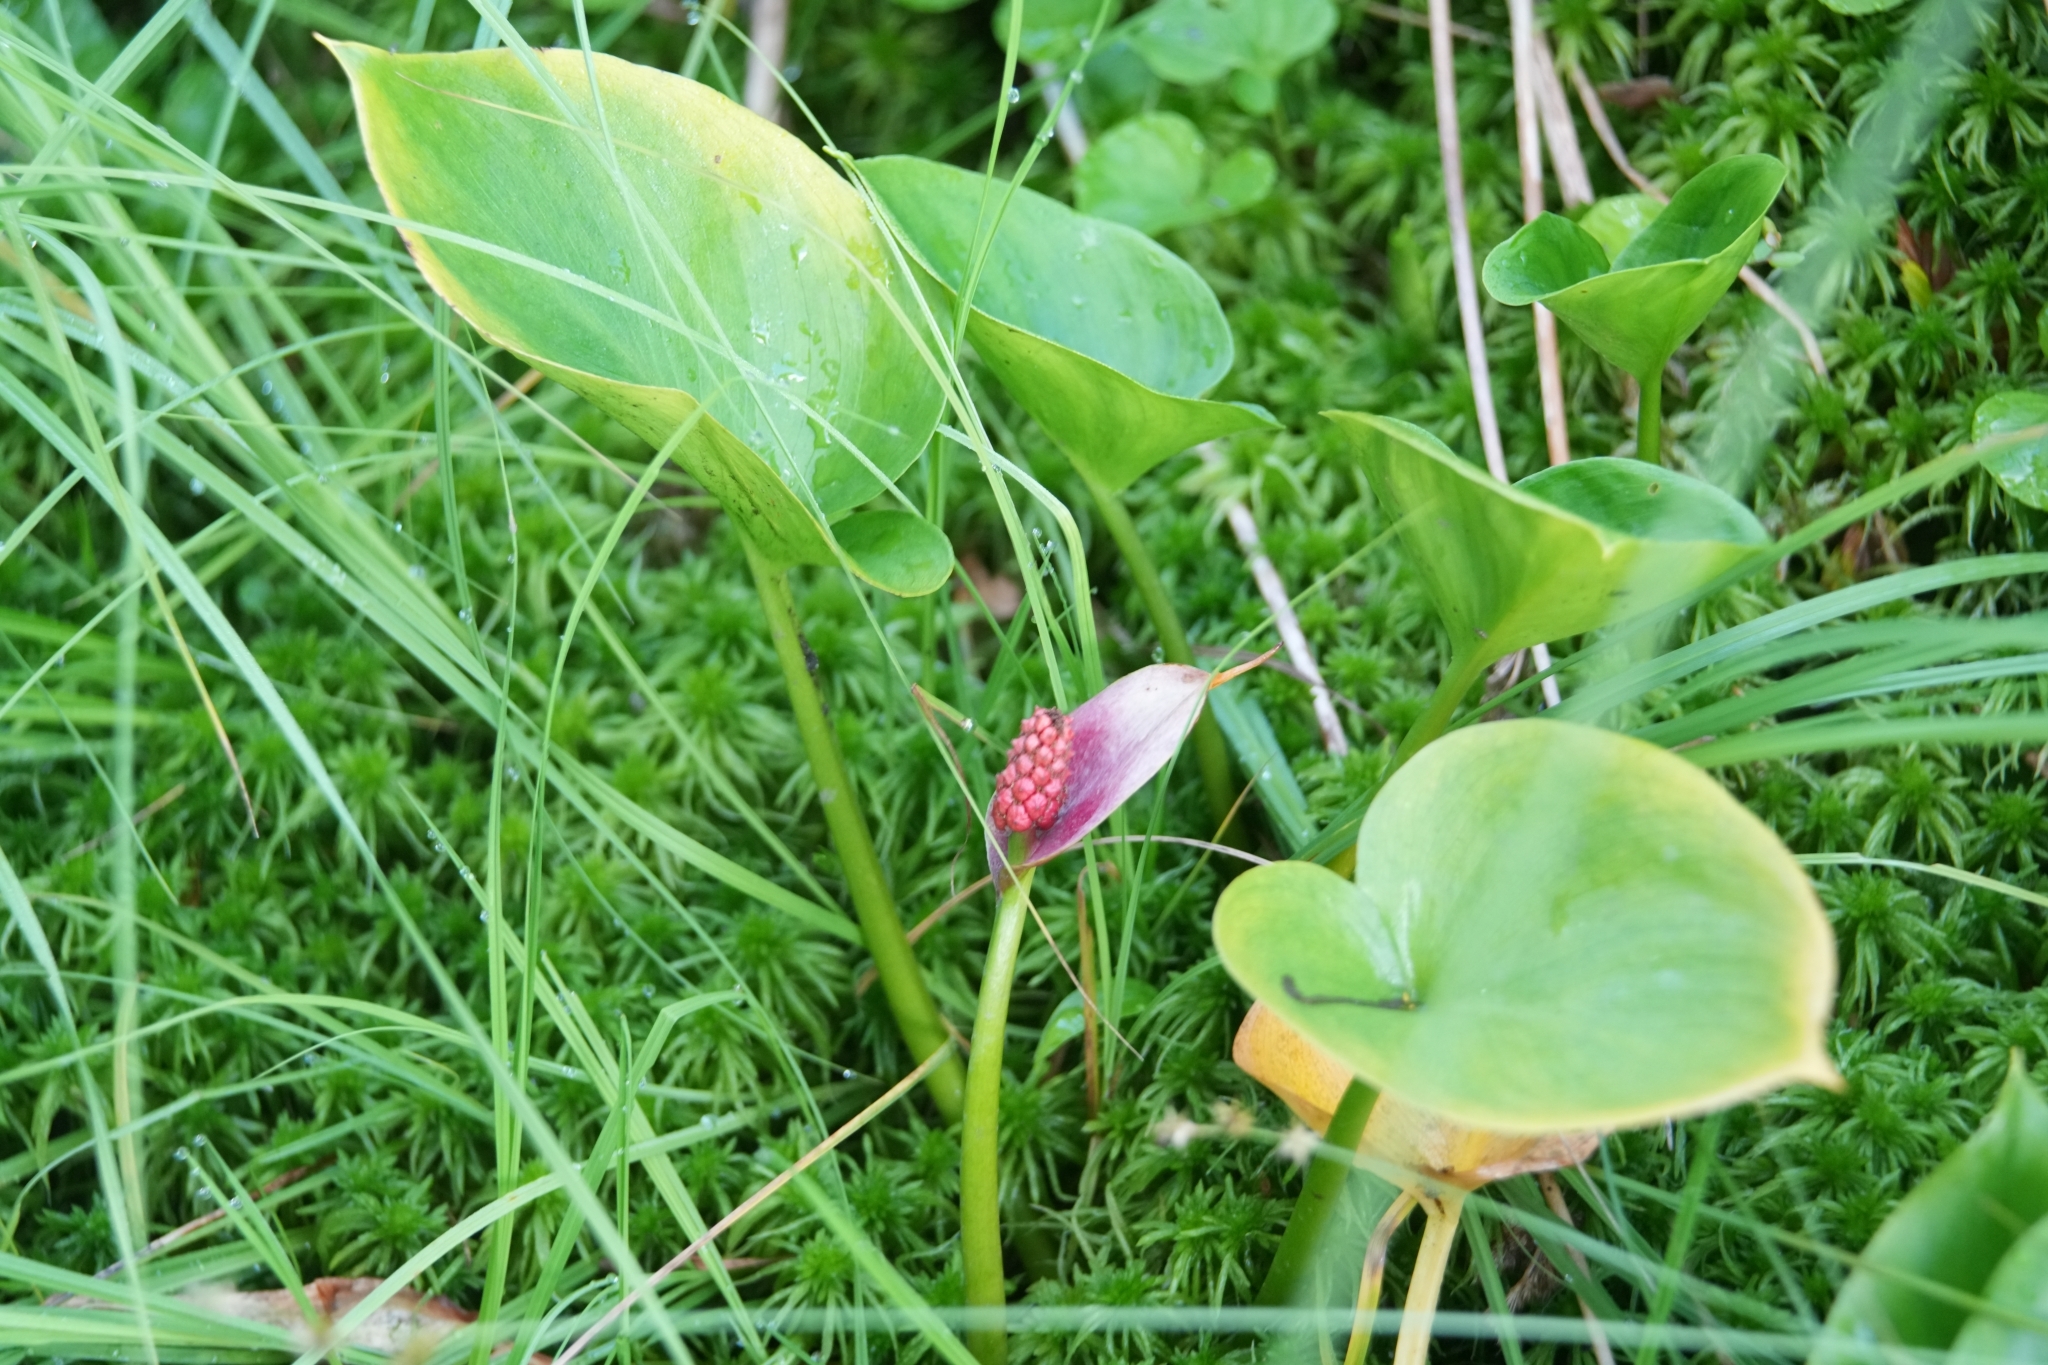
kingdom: Plantae
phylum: Tracheophyta
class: Liliopsida
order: Alismatales
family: Araceae
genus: Calla
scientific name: Calla palustris
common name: Bog arum
